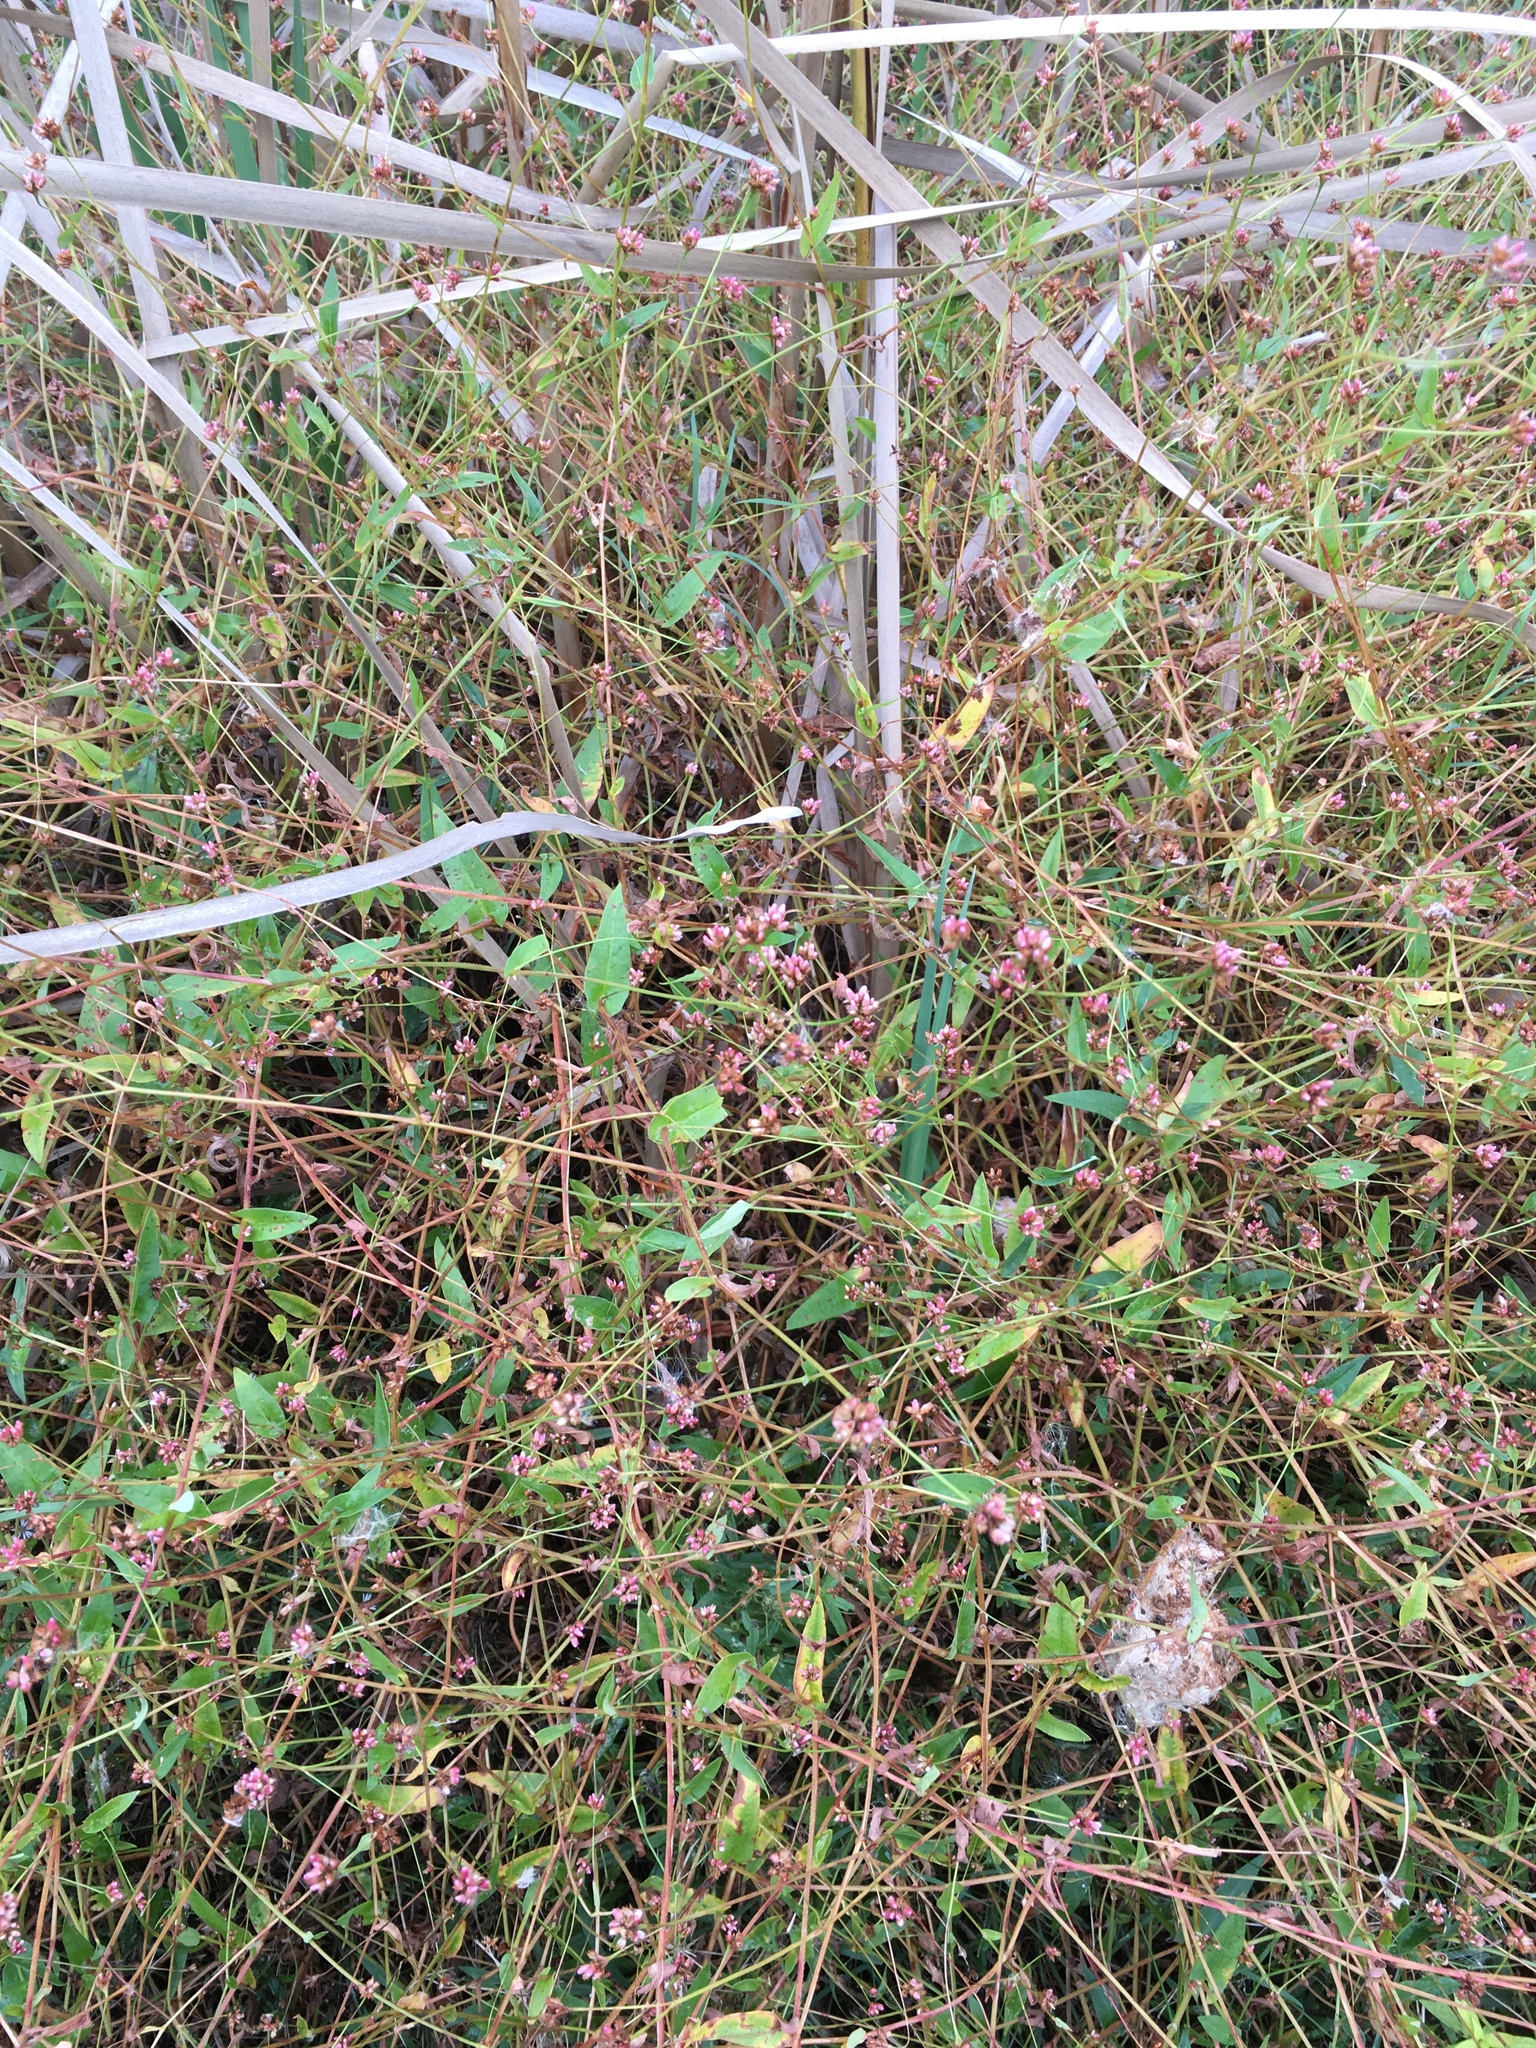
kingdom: Plantae
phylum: Tracheophyta
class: Magnoliopsida
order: Caryophyllales
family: Polygonaceae
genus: Persicaria
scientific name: Persicaria sagittata
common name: American tearthumb
